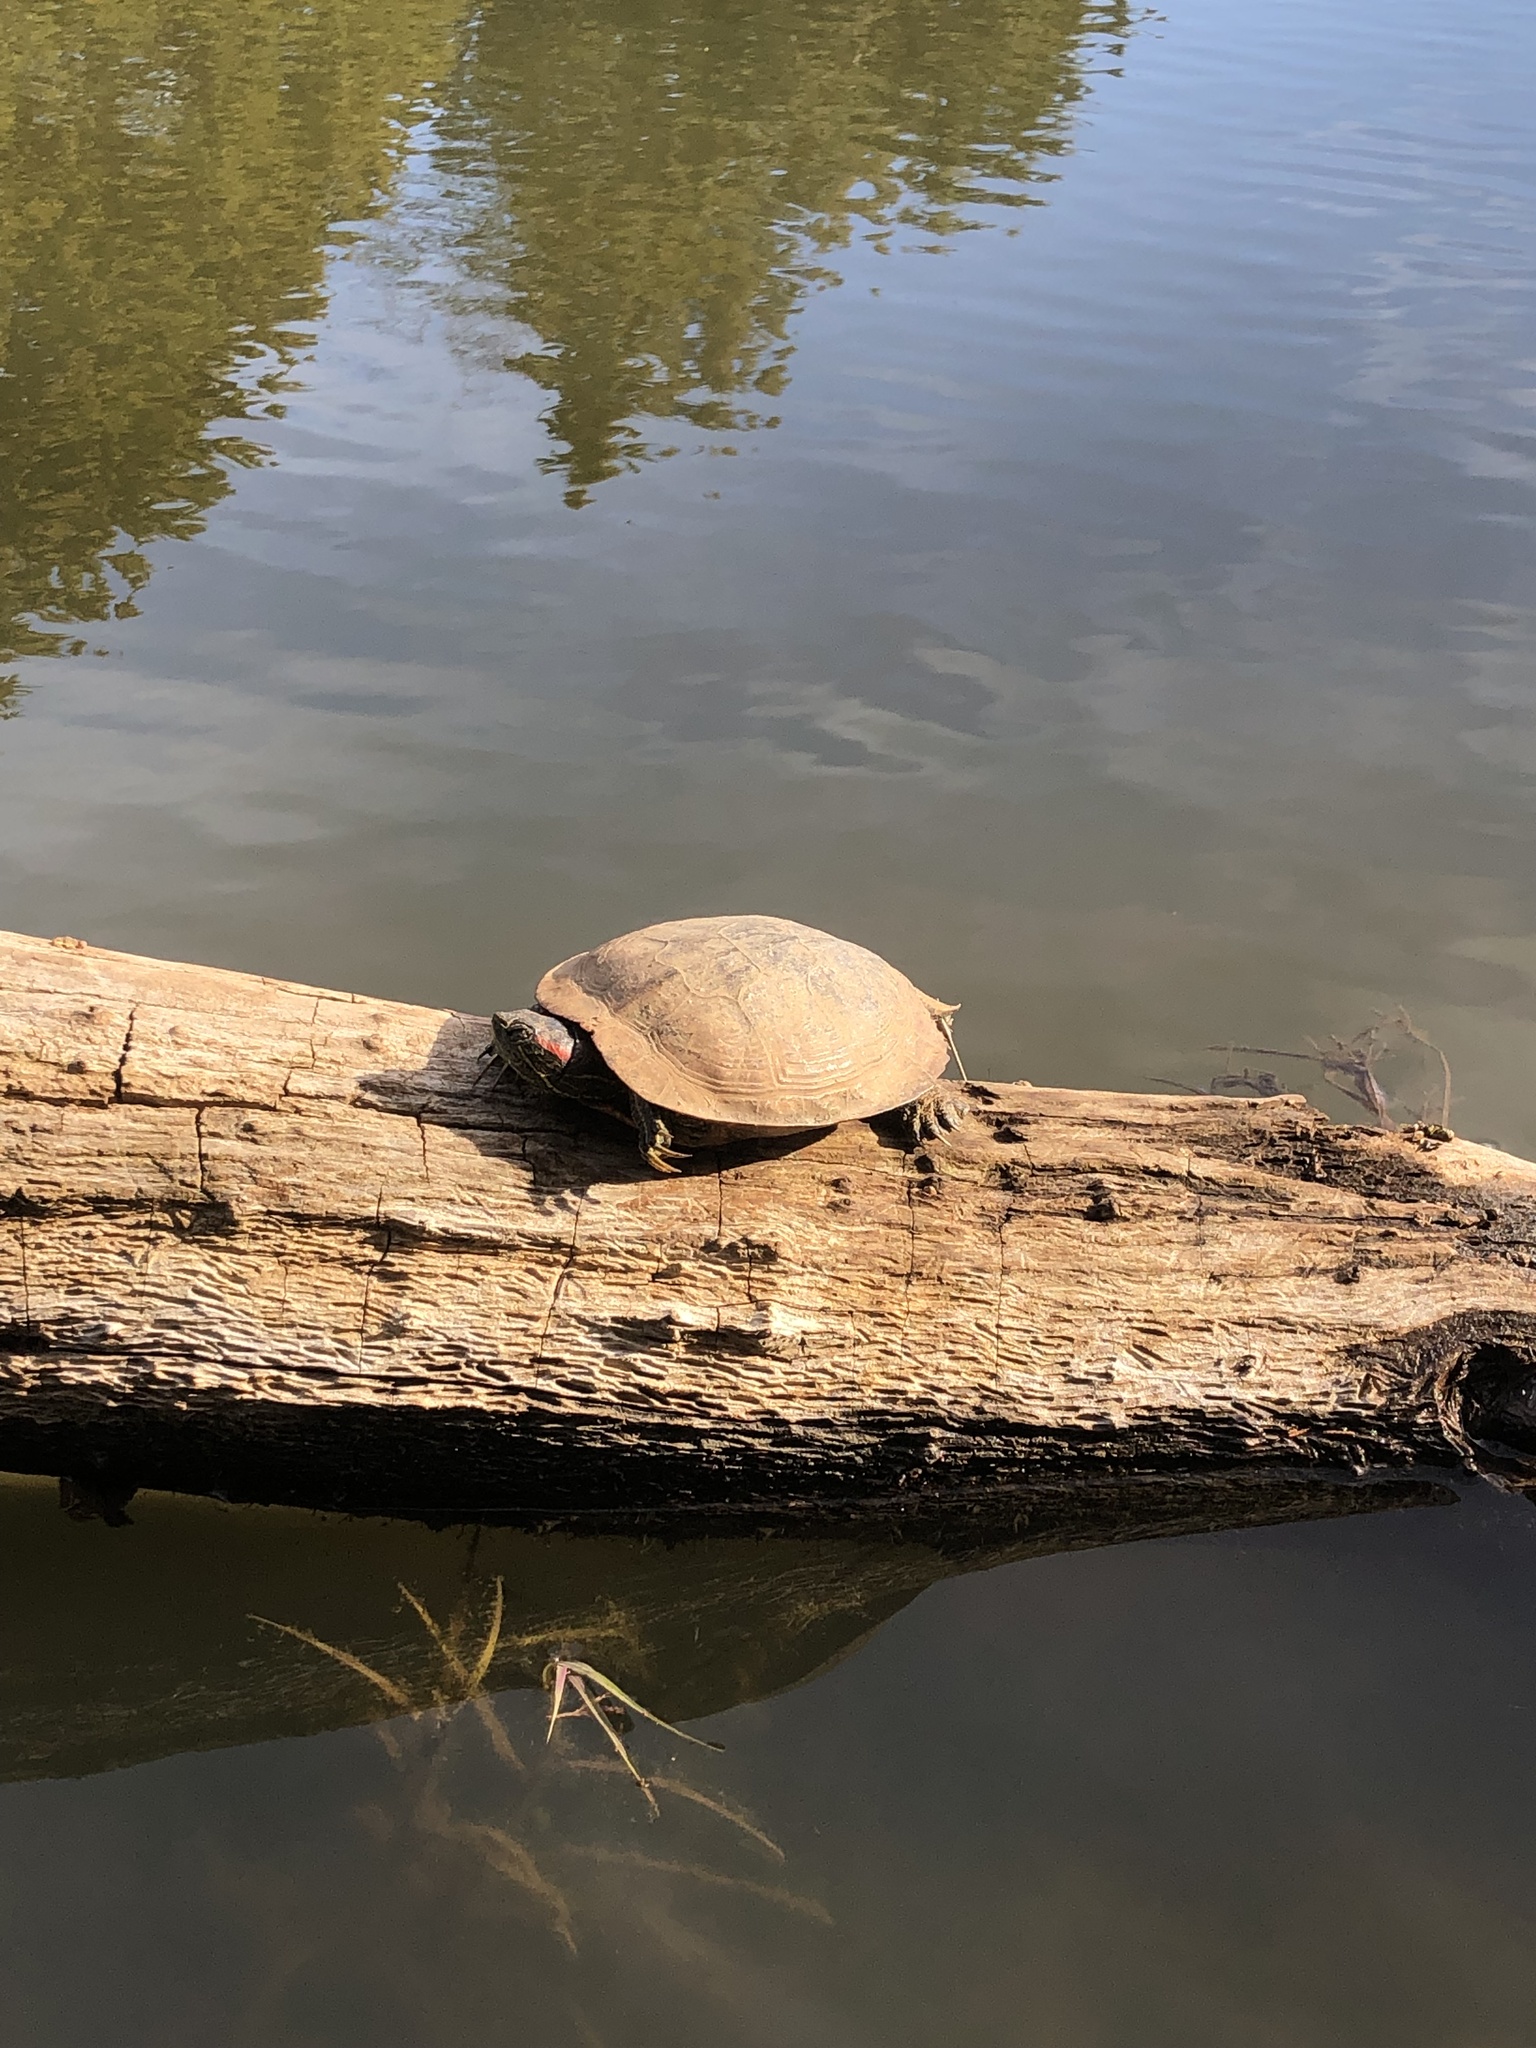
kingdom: Animalia
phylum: Chordata
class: Testudines
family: Emydidae
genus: Trachemys
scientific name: Trachemys scripta
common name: Slider
